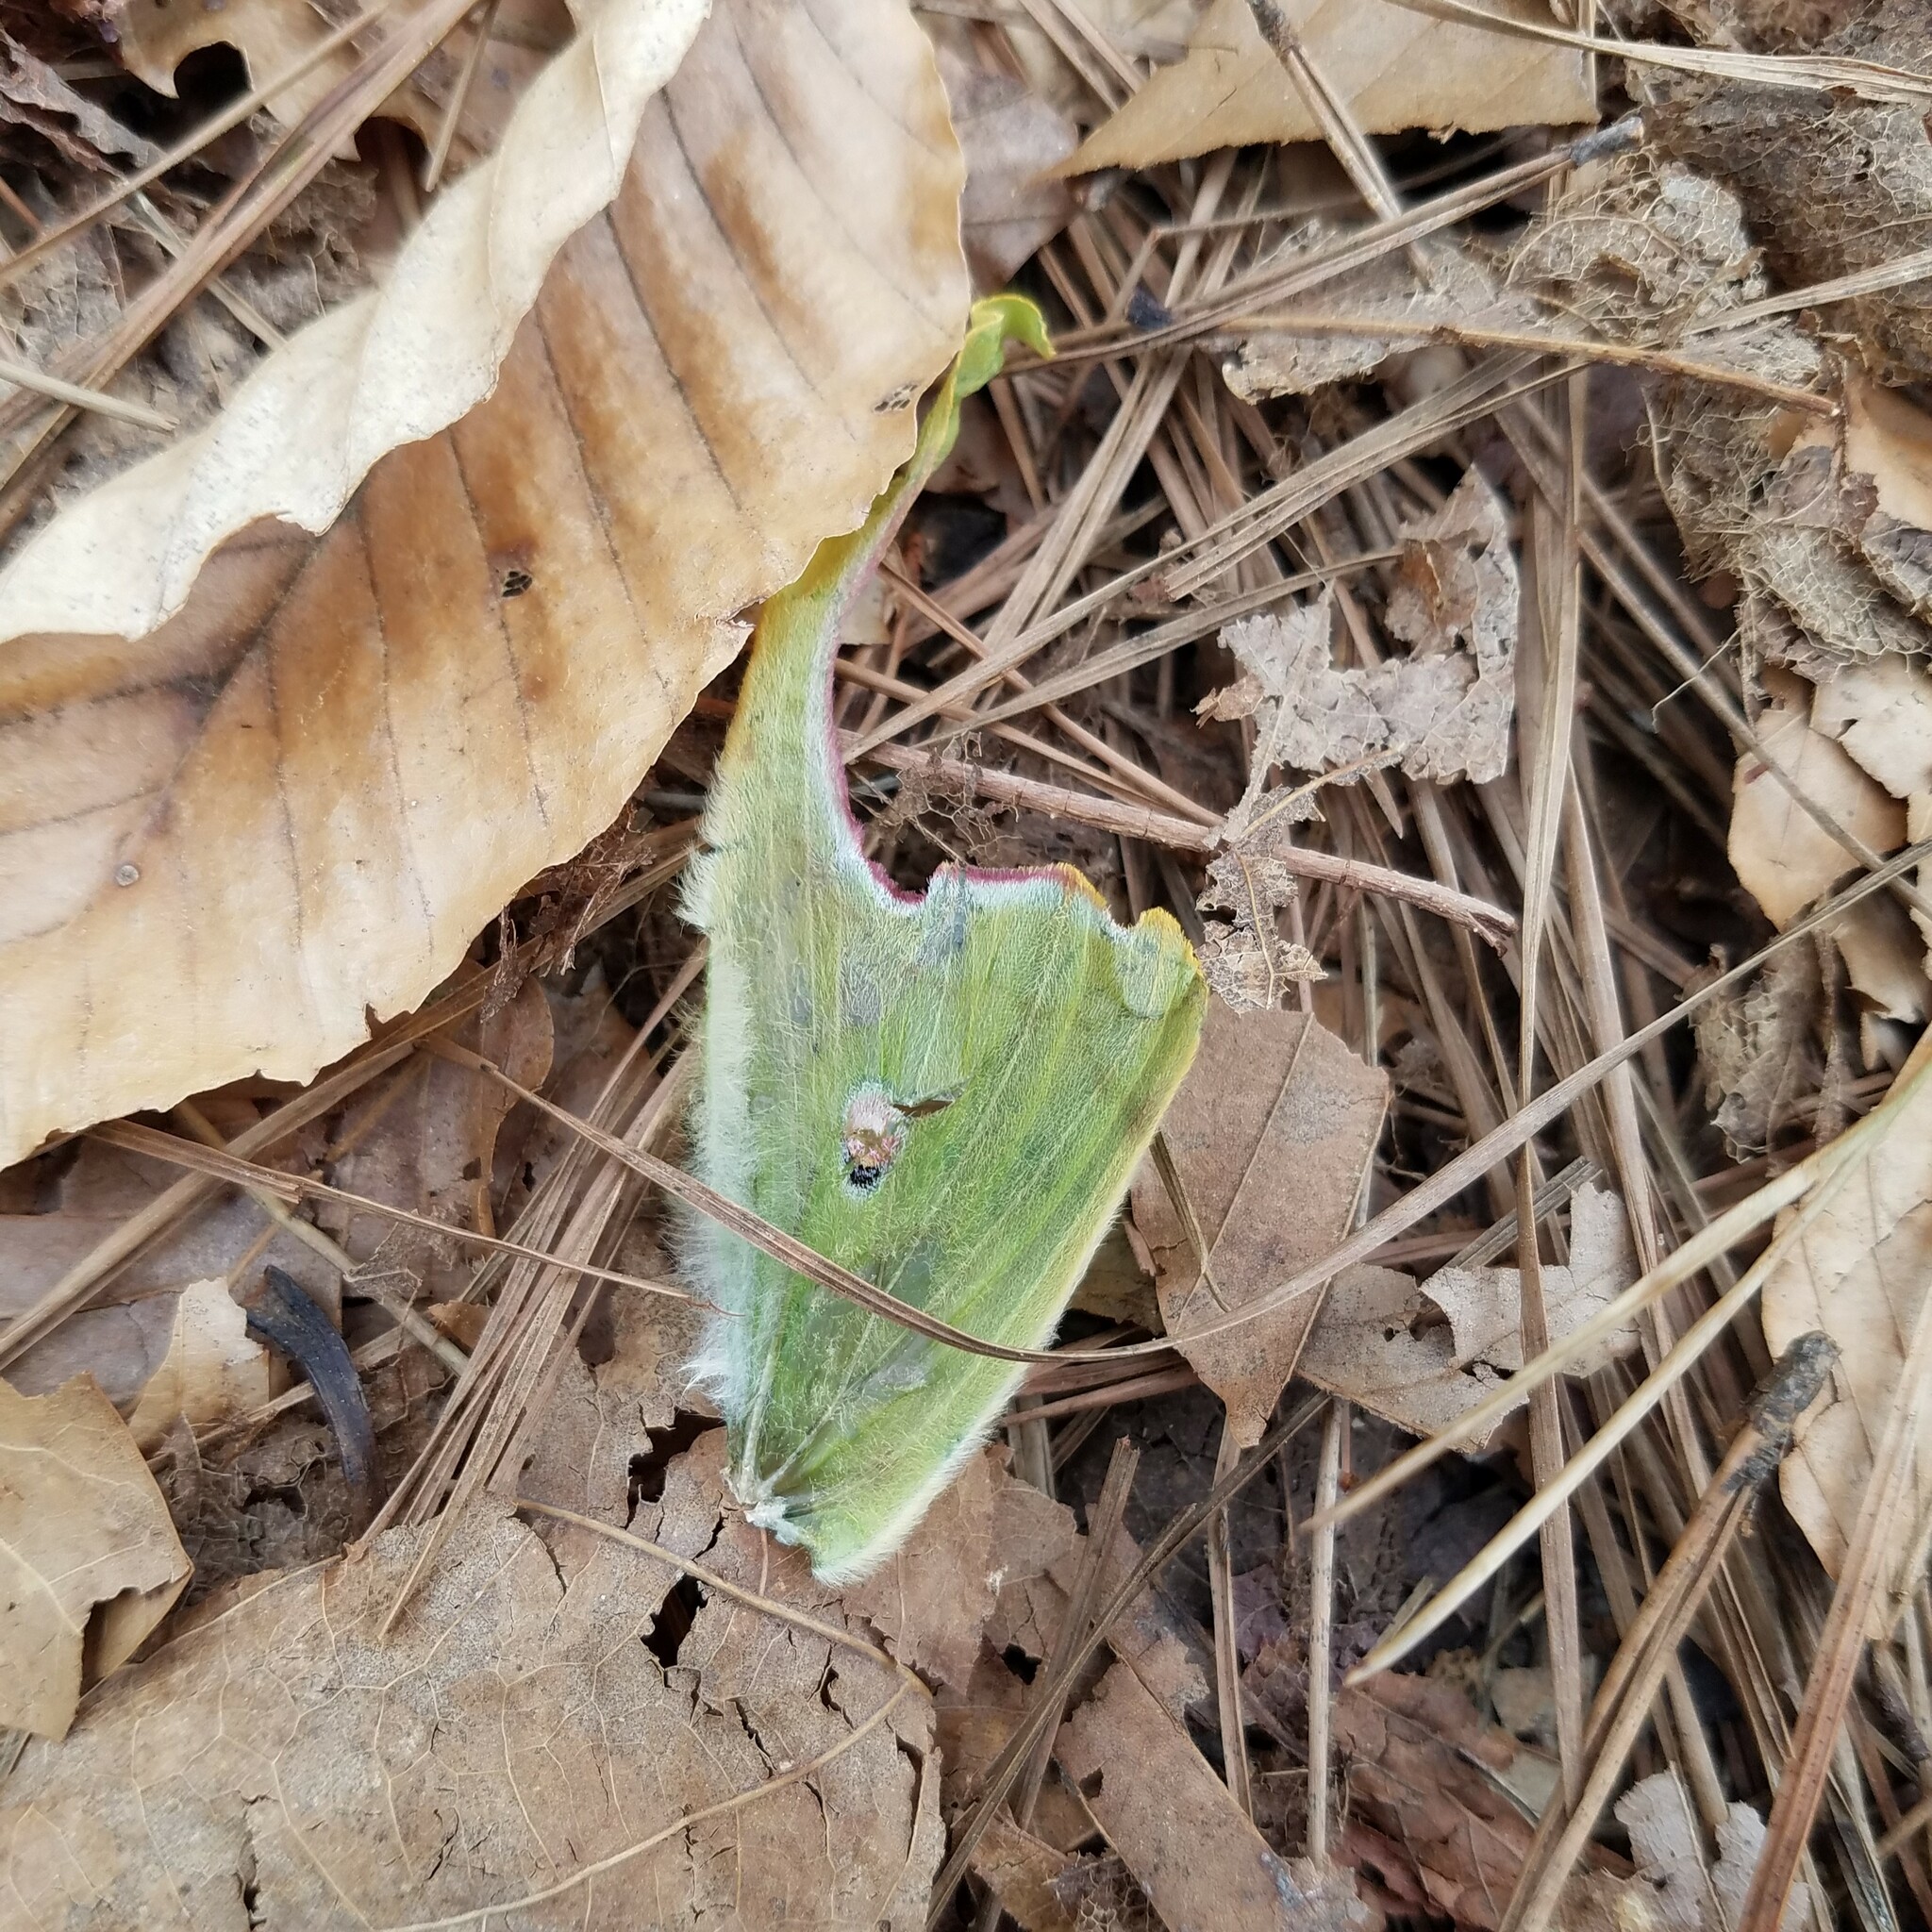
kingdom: Animalia
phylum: Arthropoda
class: Insecta
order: Lepidoptera
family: Saturniidae
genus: Actias
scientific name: Actias luna
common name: Luna moth
